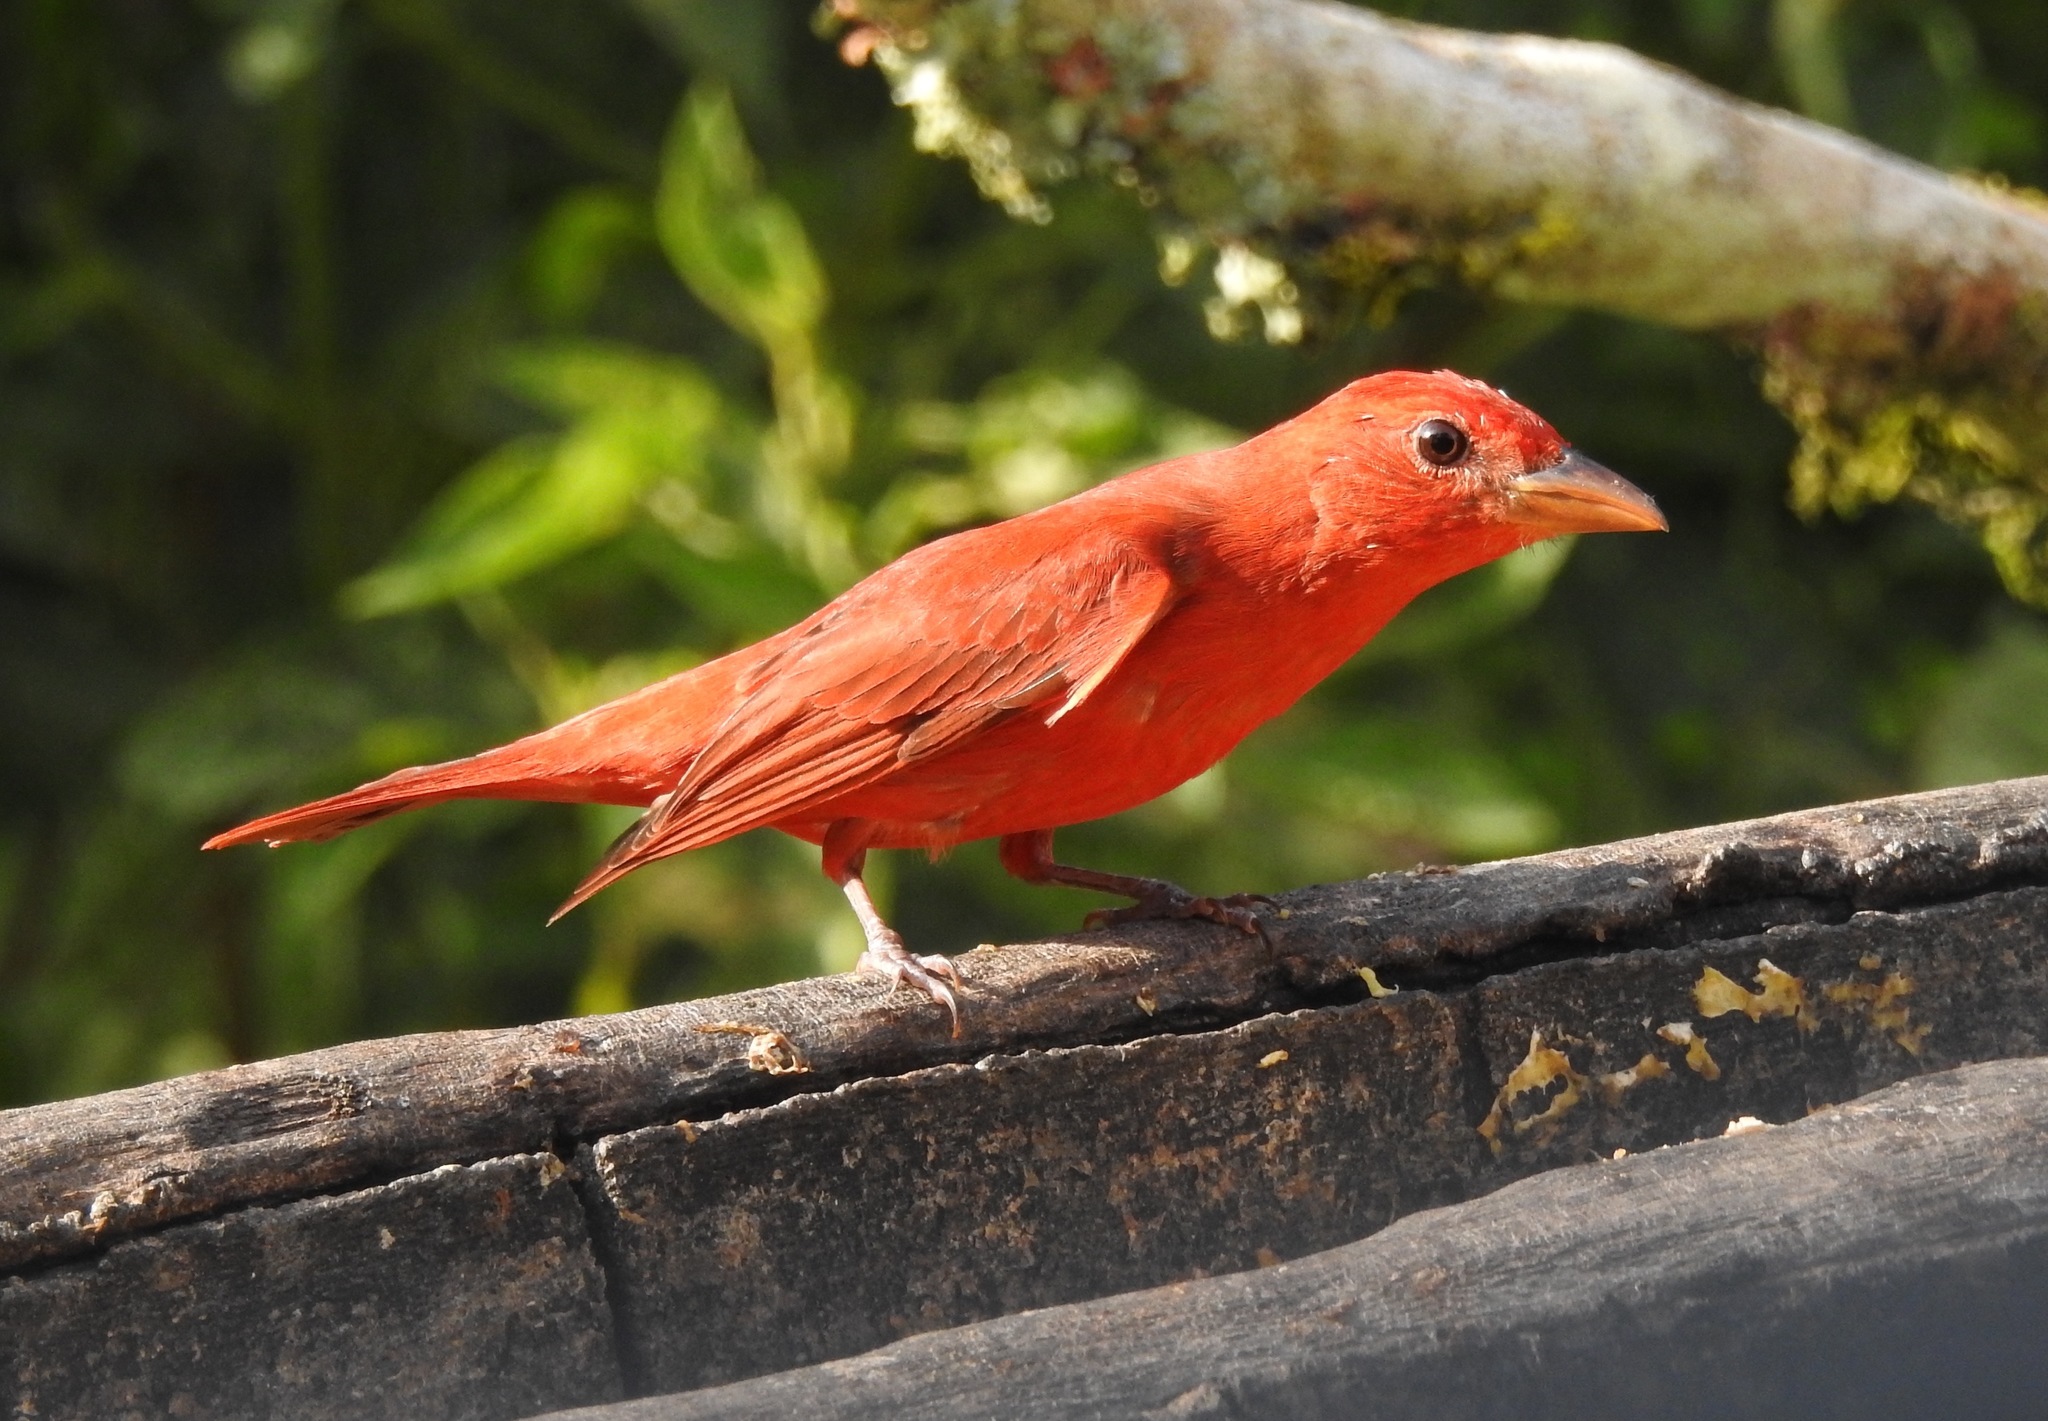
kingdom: Animalia
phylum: Chordata
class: Aves
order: Passeriformes
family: Cardinalidae
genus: Piranga
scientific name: Piranga rubra
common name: Summer tanager
